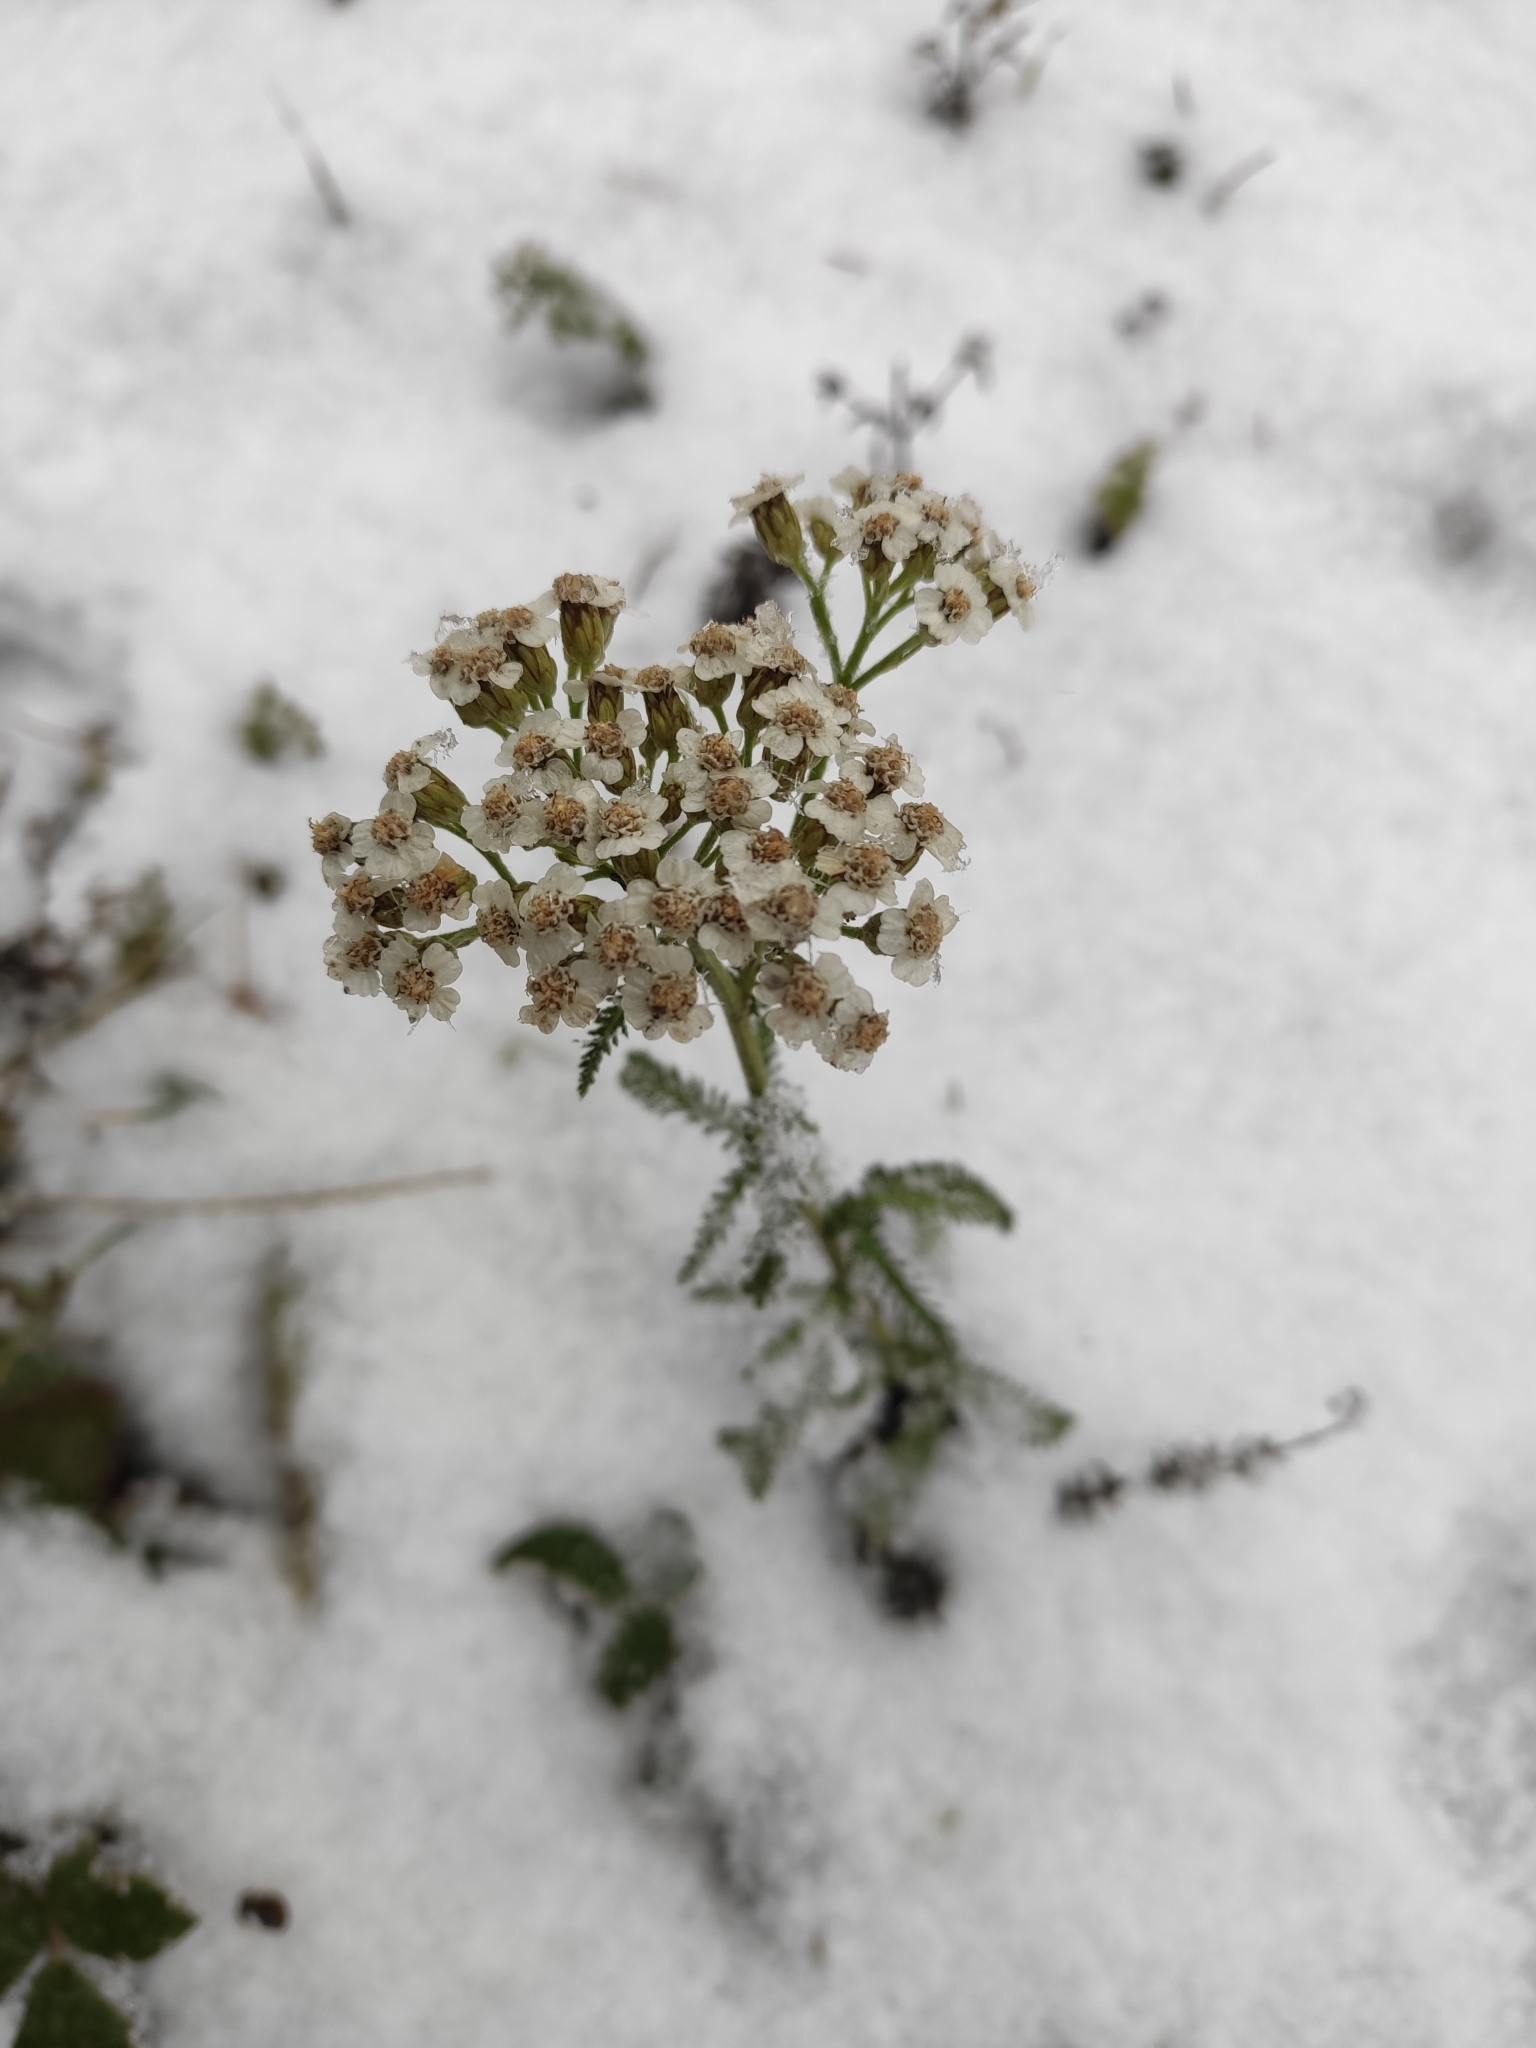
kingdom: Plantae
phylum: Tracheophyta
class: Magnoliopsida
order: Asterales
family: Asteraceae
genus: Achillea
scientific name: Achillea millefolium
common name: Yarrow
